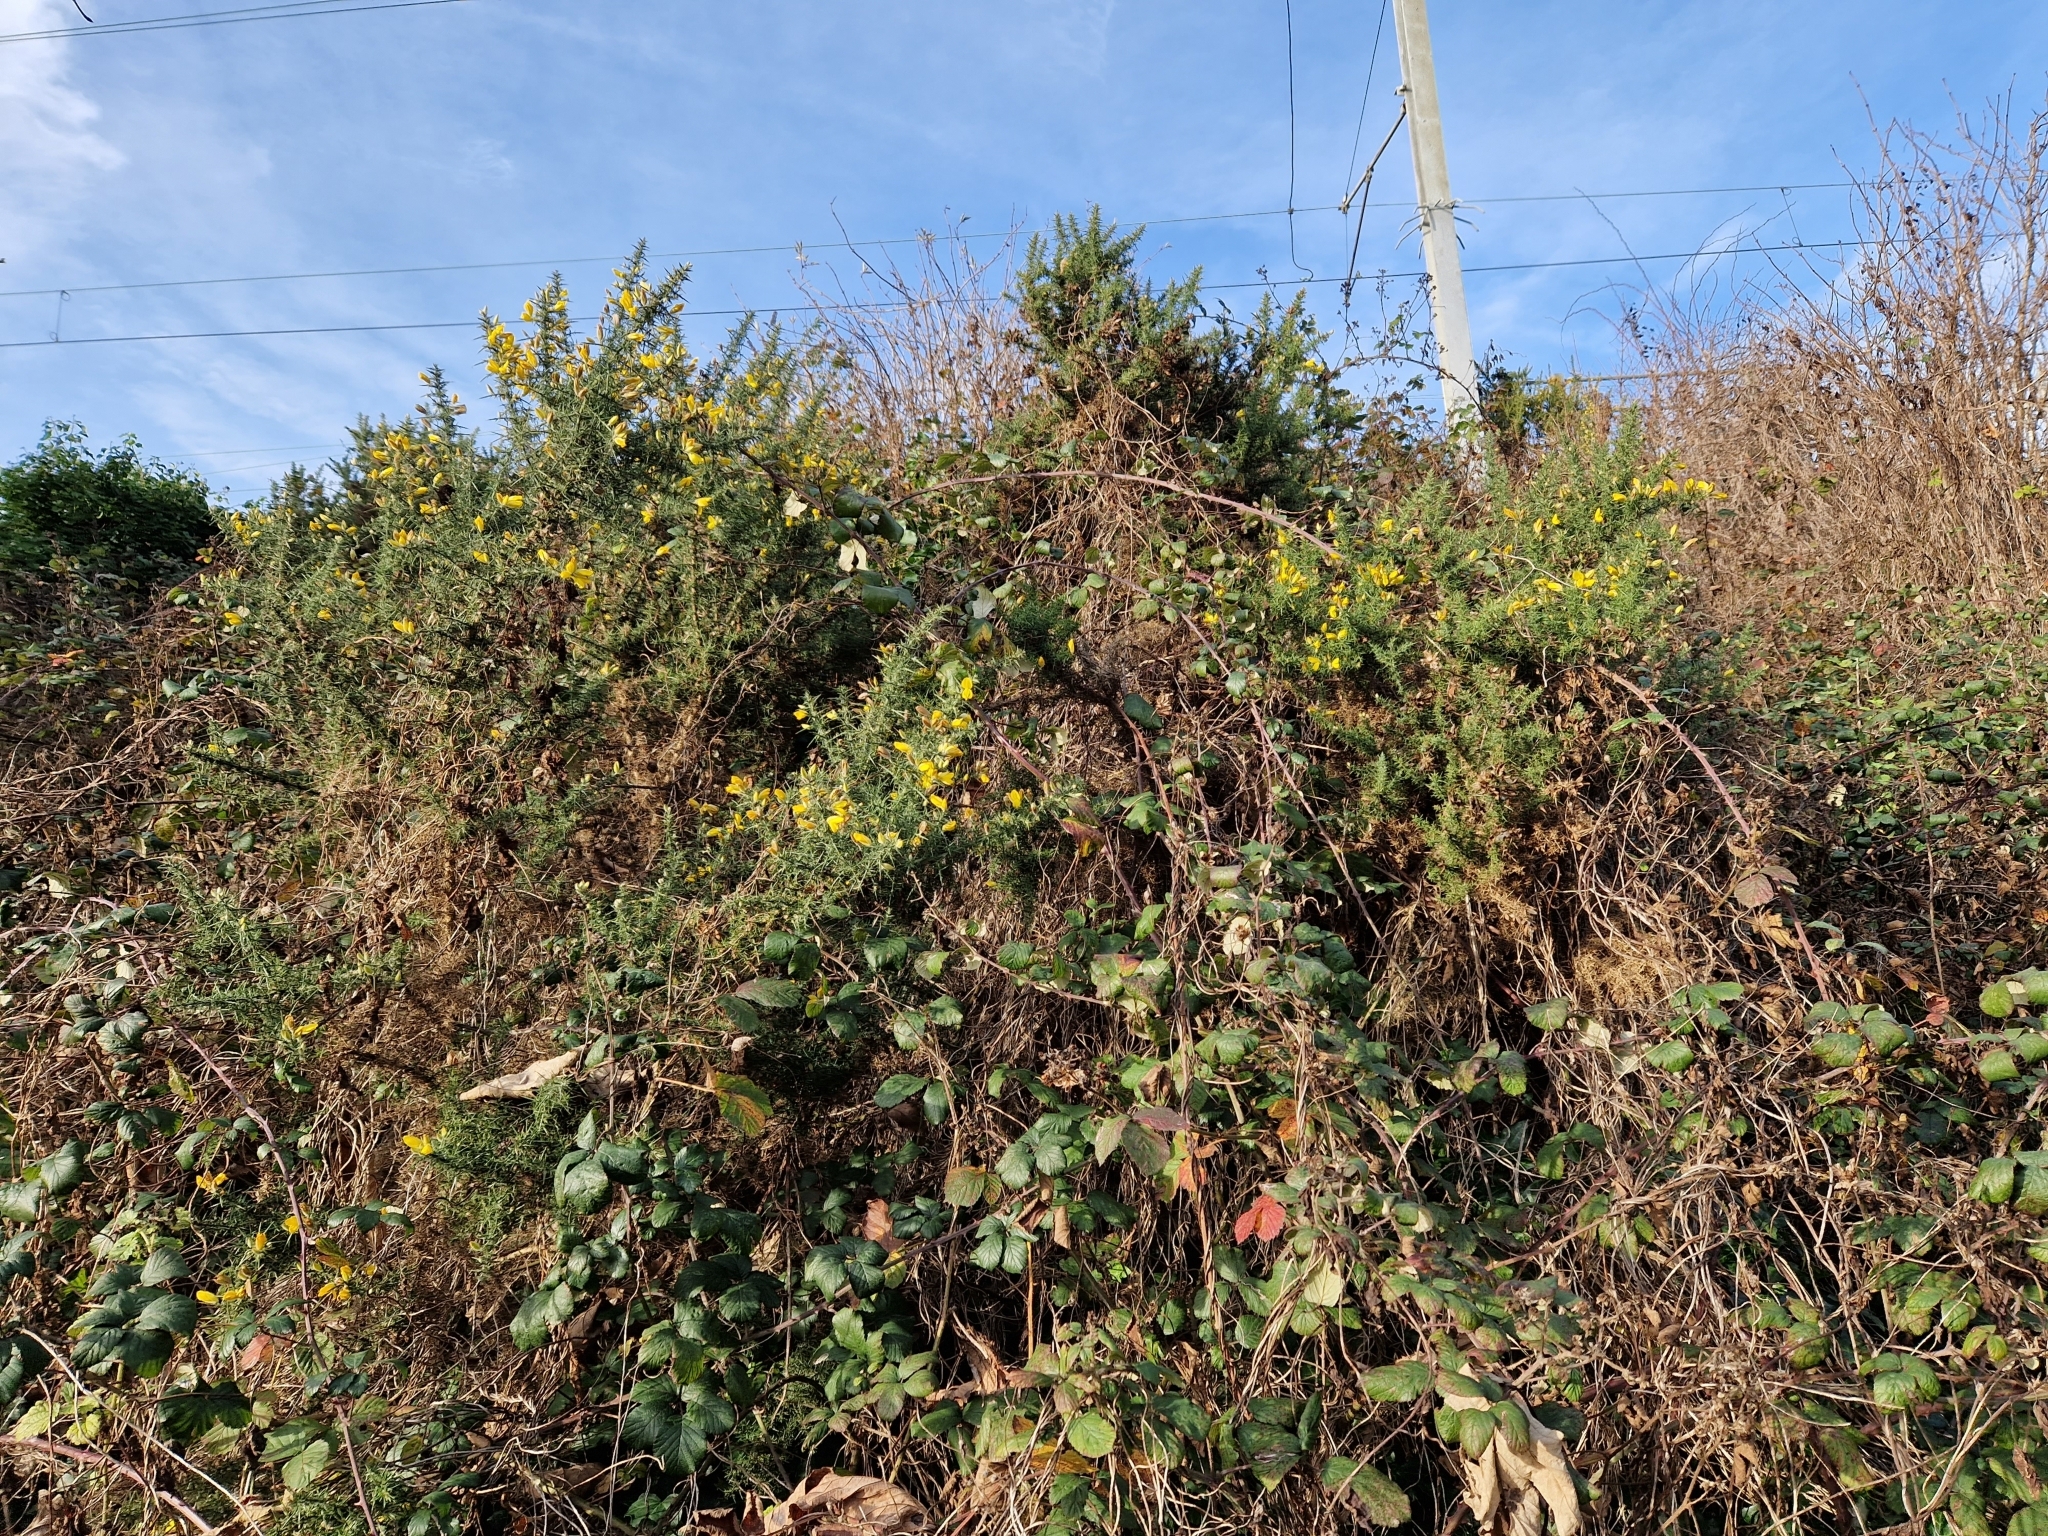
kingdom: Plantae
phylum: Tracheophyta
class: Magnoliopsida
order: Fabales
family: Fabaceae
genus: Ulex
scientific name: Ulex europaeus
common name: Common gorse
